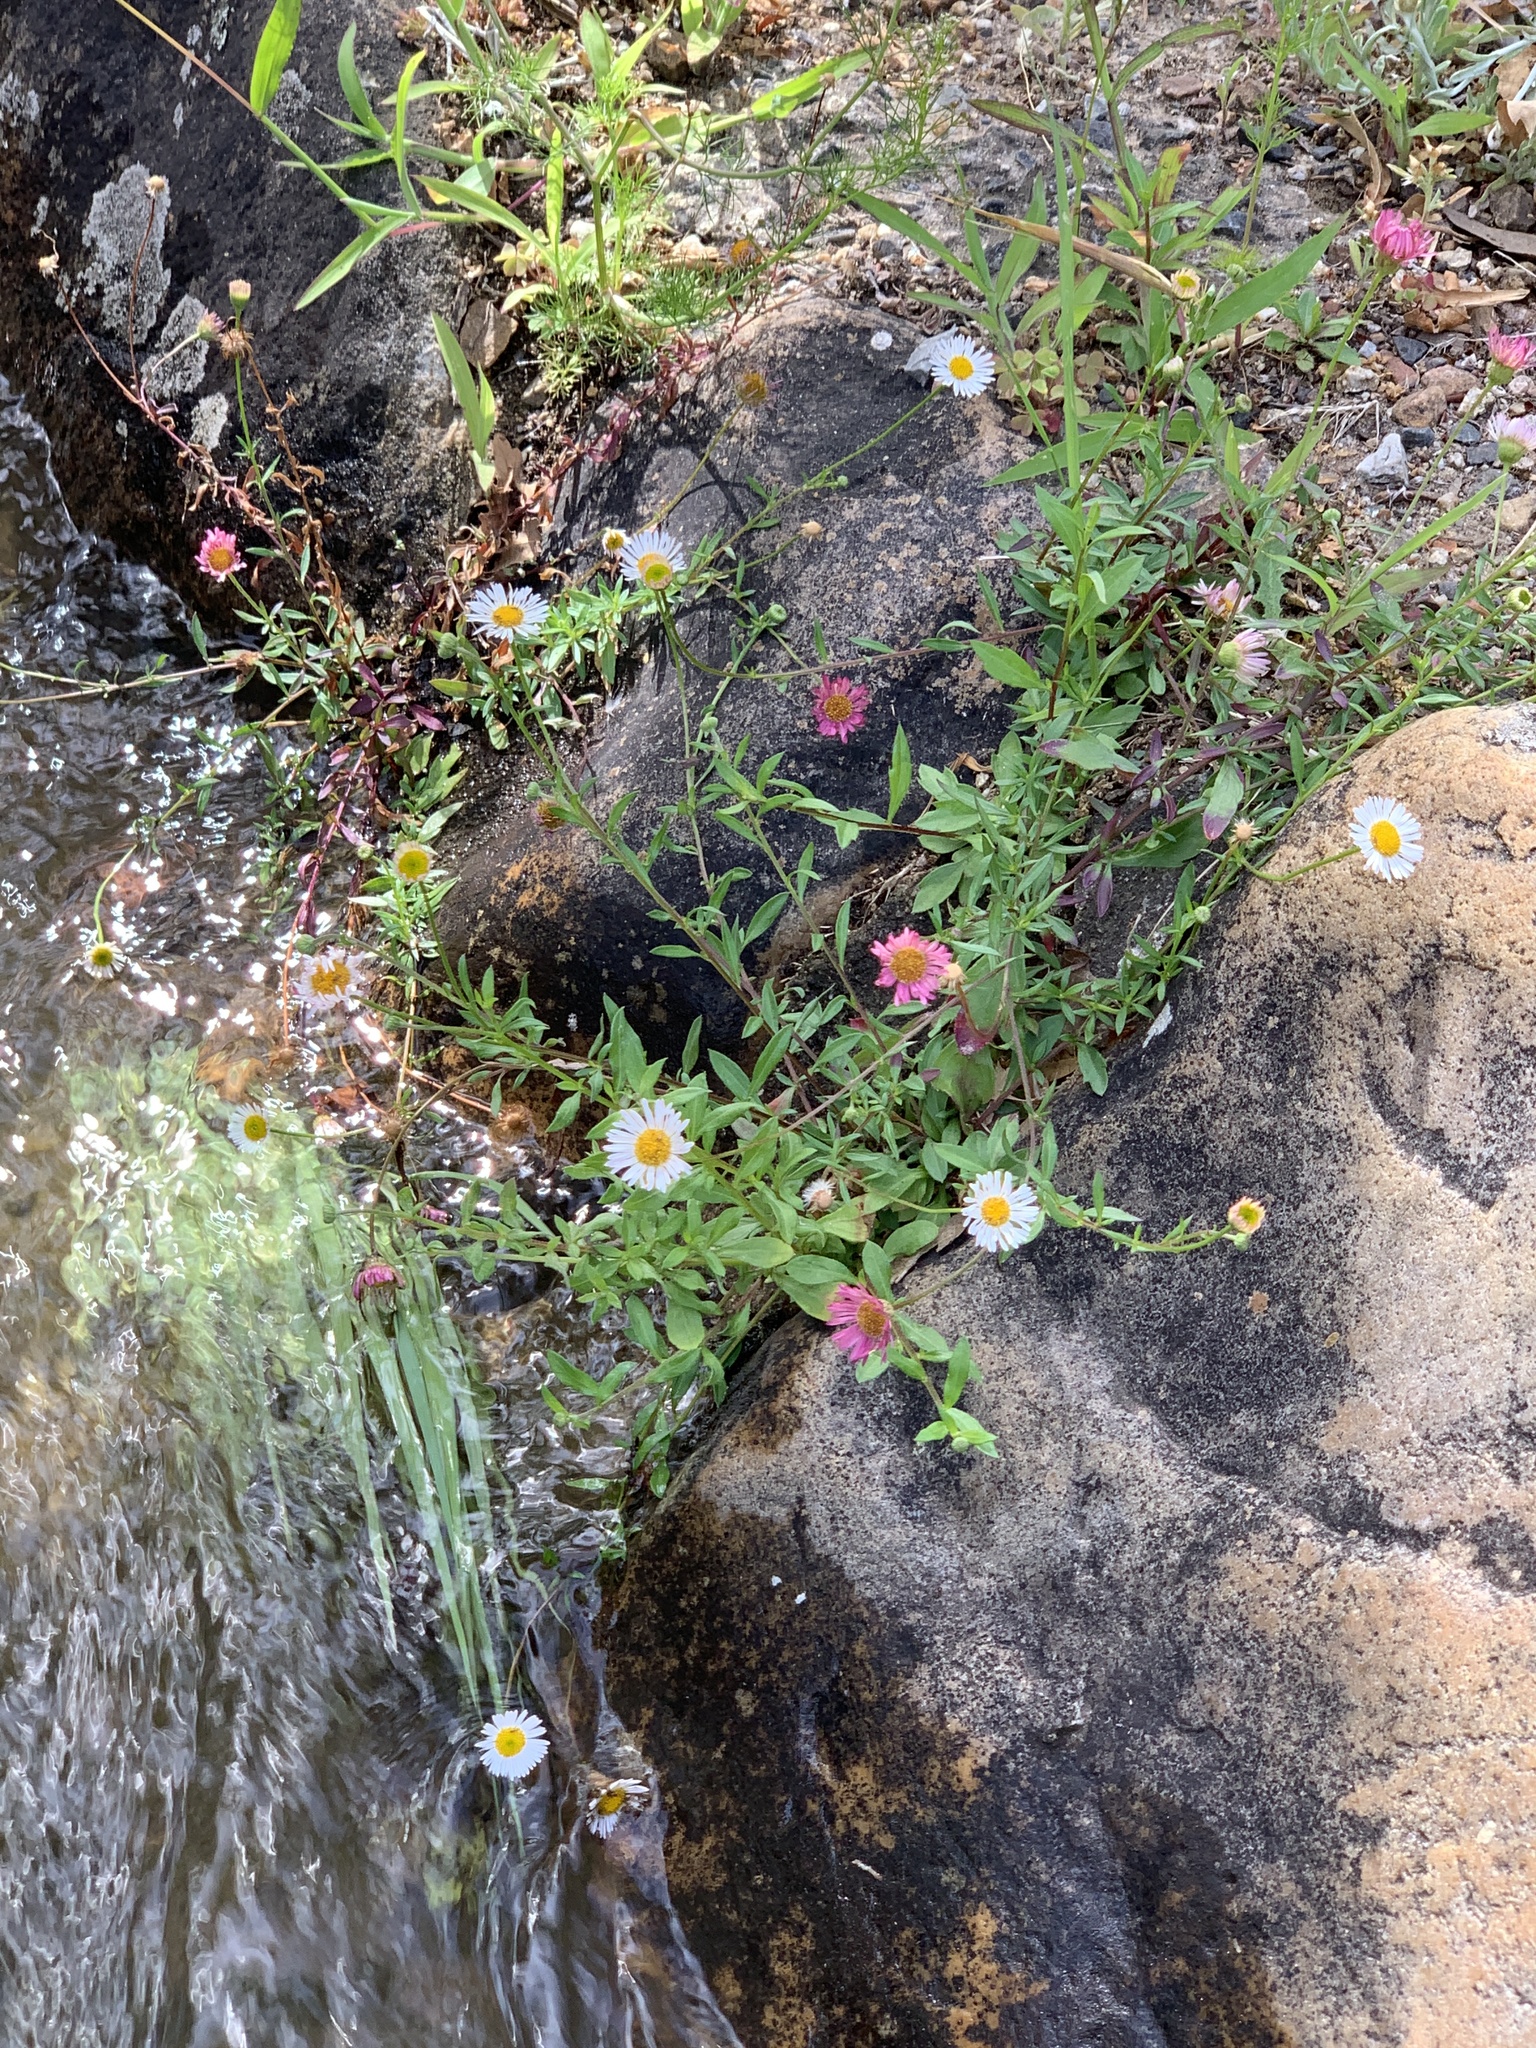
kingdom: Plantae
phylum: Tracheophyta
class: Magnoliopsida
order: Asterales
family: Asteraceae
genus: Erigeron
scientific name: Erigeron karvinskianus
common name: Mexican fleabane
